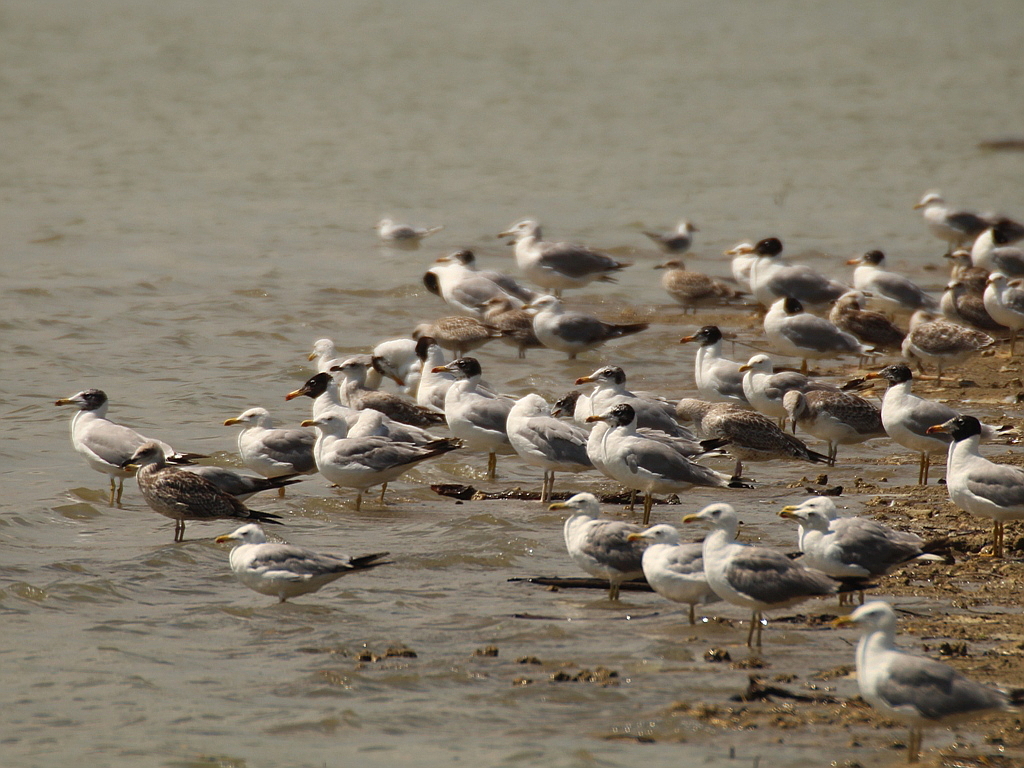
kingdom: Animalia
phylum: Chordata
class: Aves
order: Charadriiformes
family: Laridae
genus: Ichthyaetus
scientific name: Ichthyaetus ichthyaetus
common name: Pallas's gull
